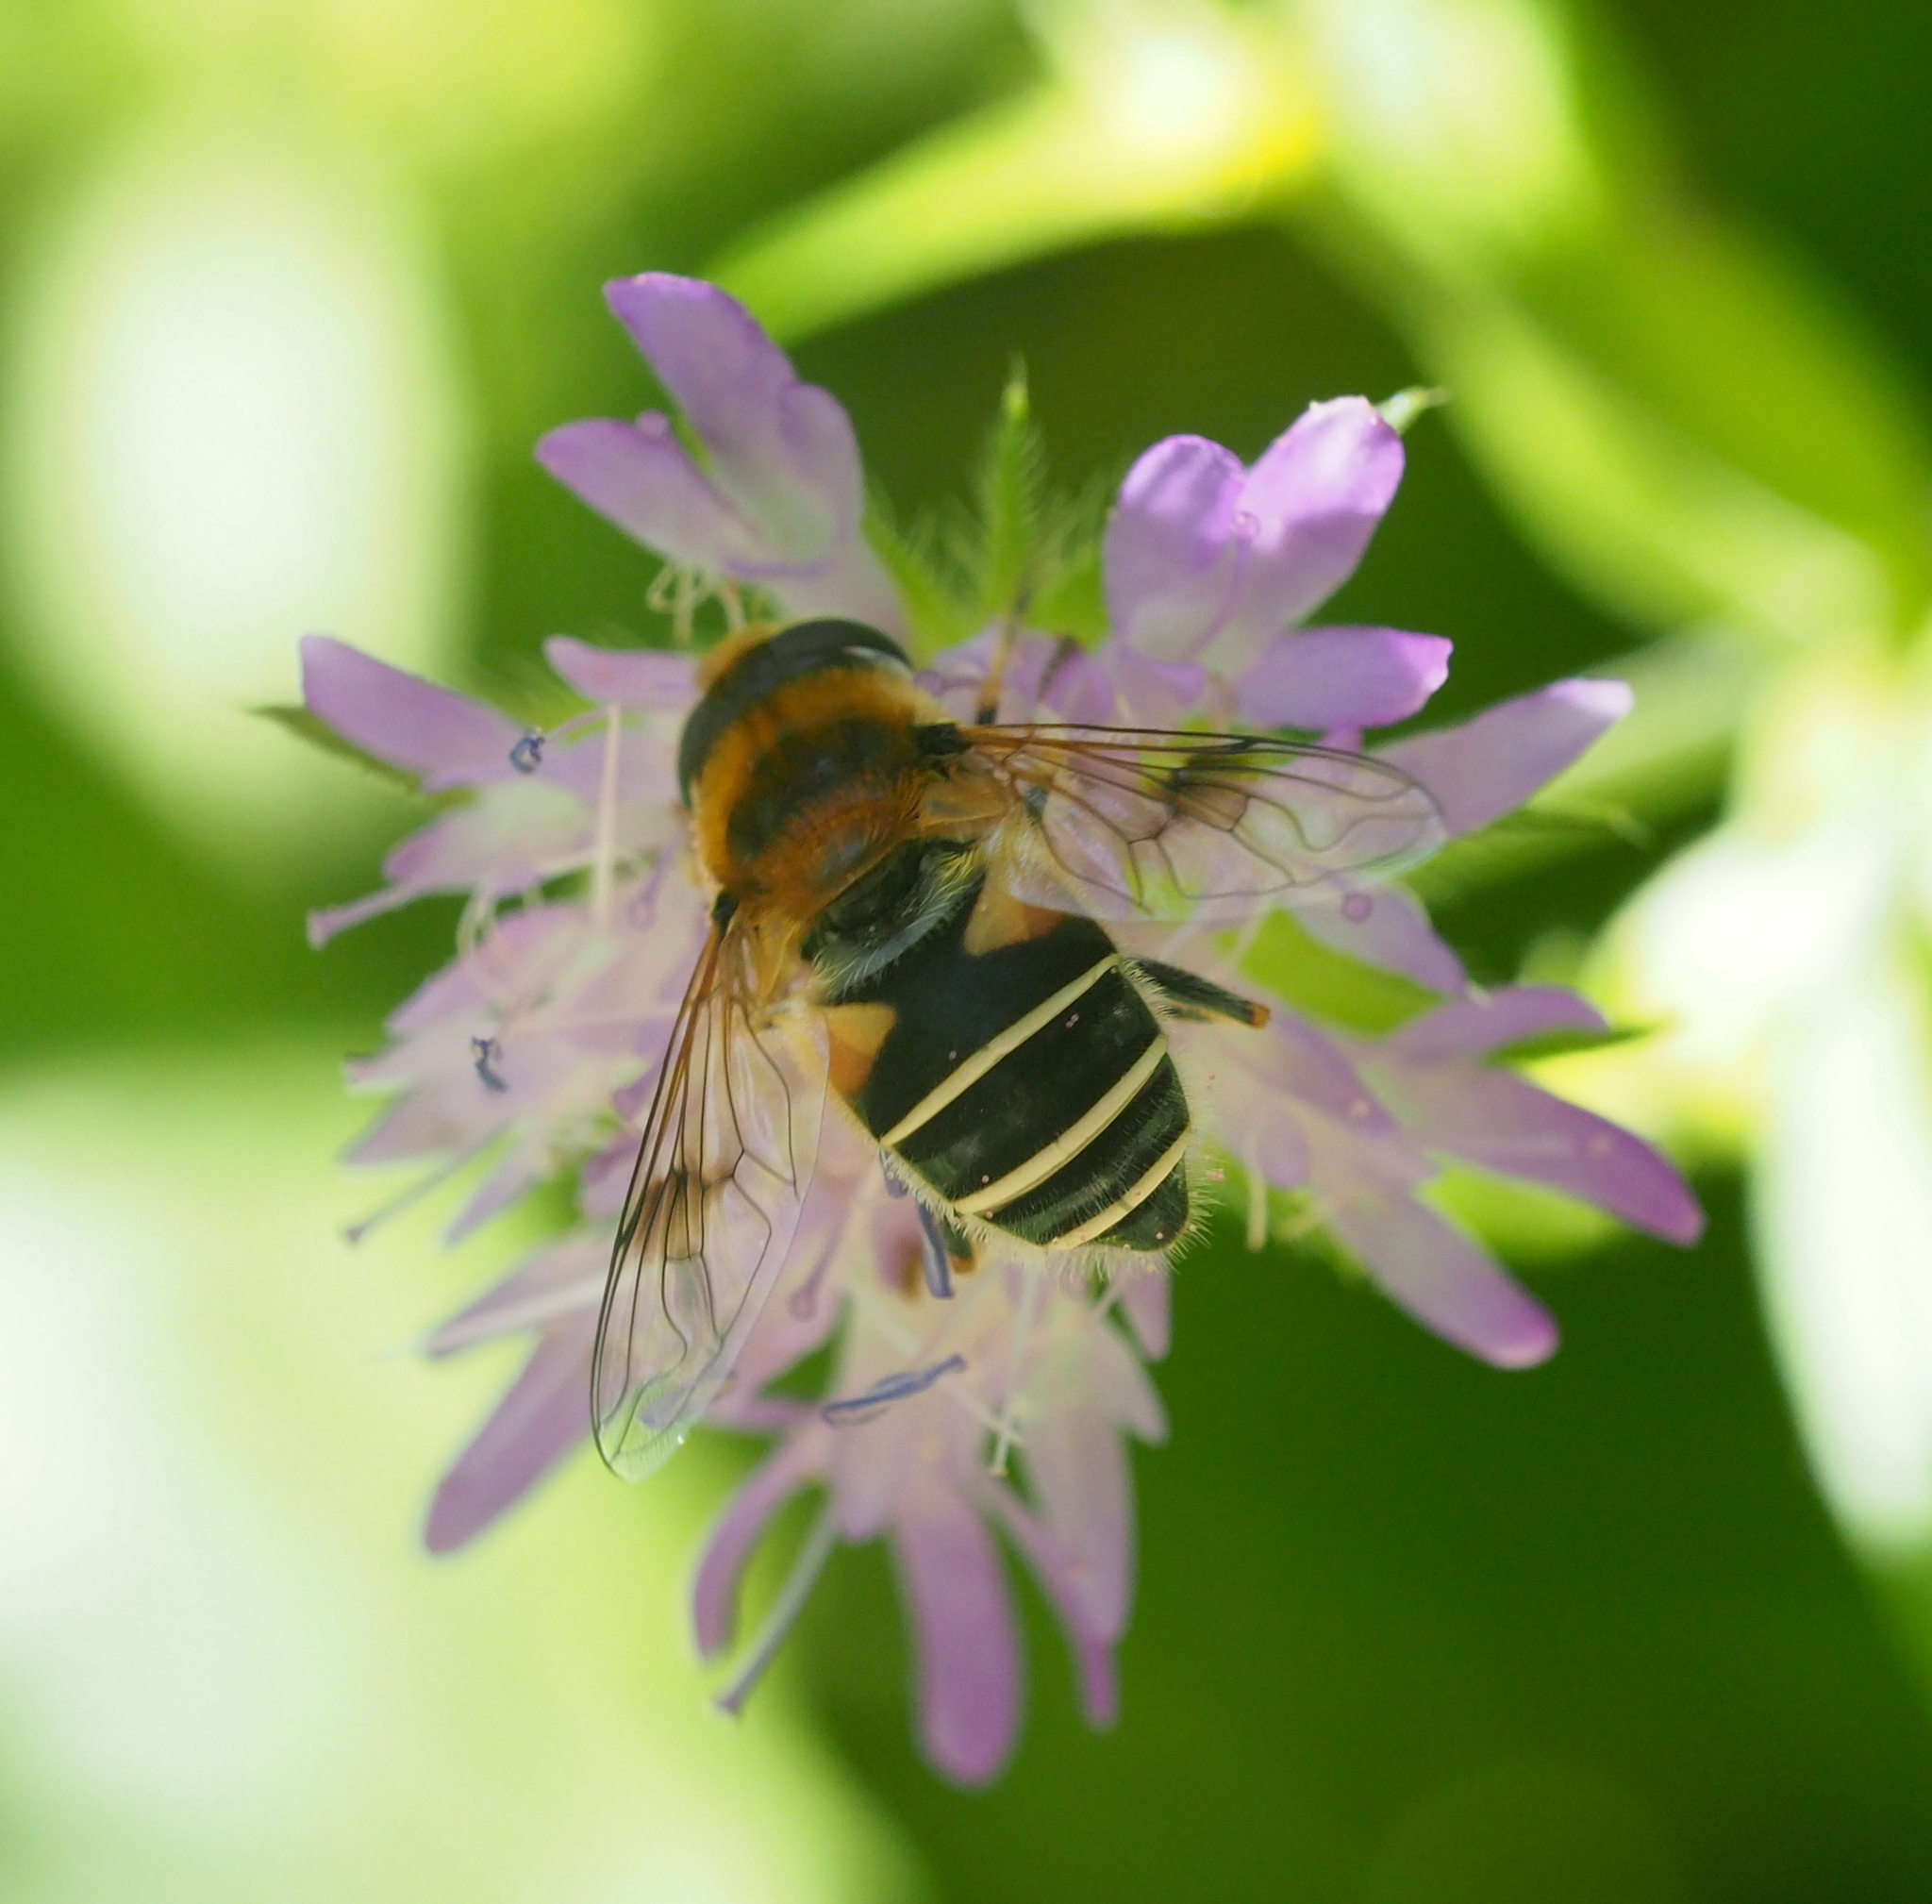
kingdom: Animalia
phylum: Arthropoda
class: Insecta
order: Diptera
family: Syrphidae
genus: Eristalis
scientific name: Eristalis jugorum
